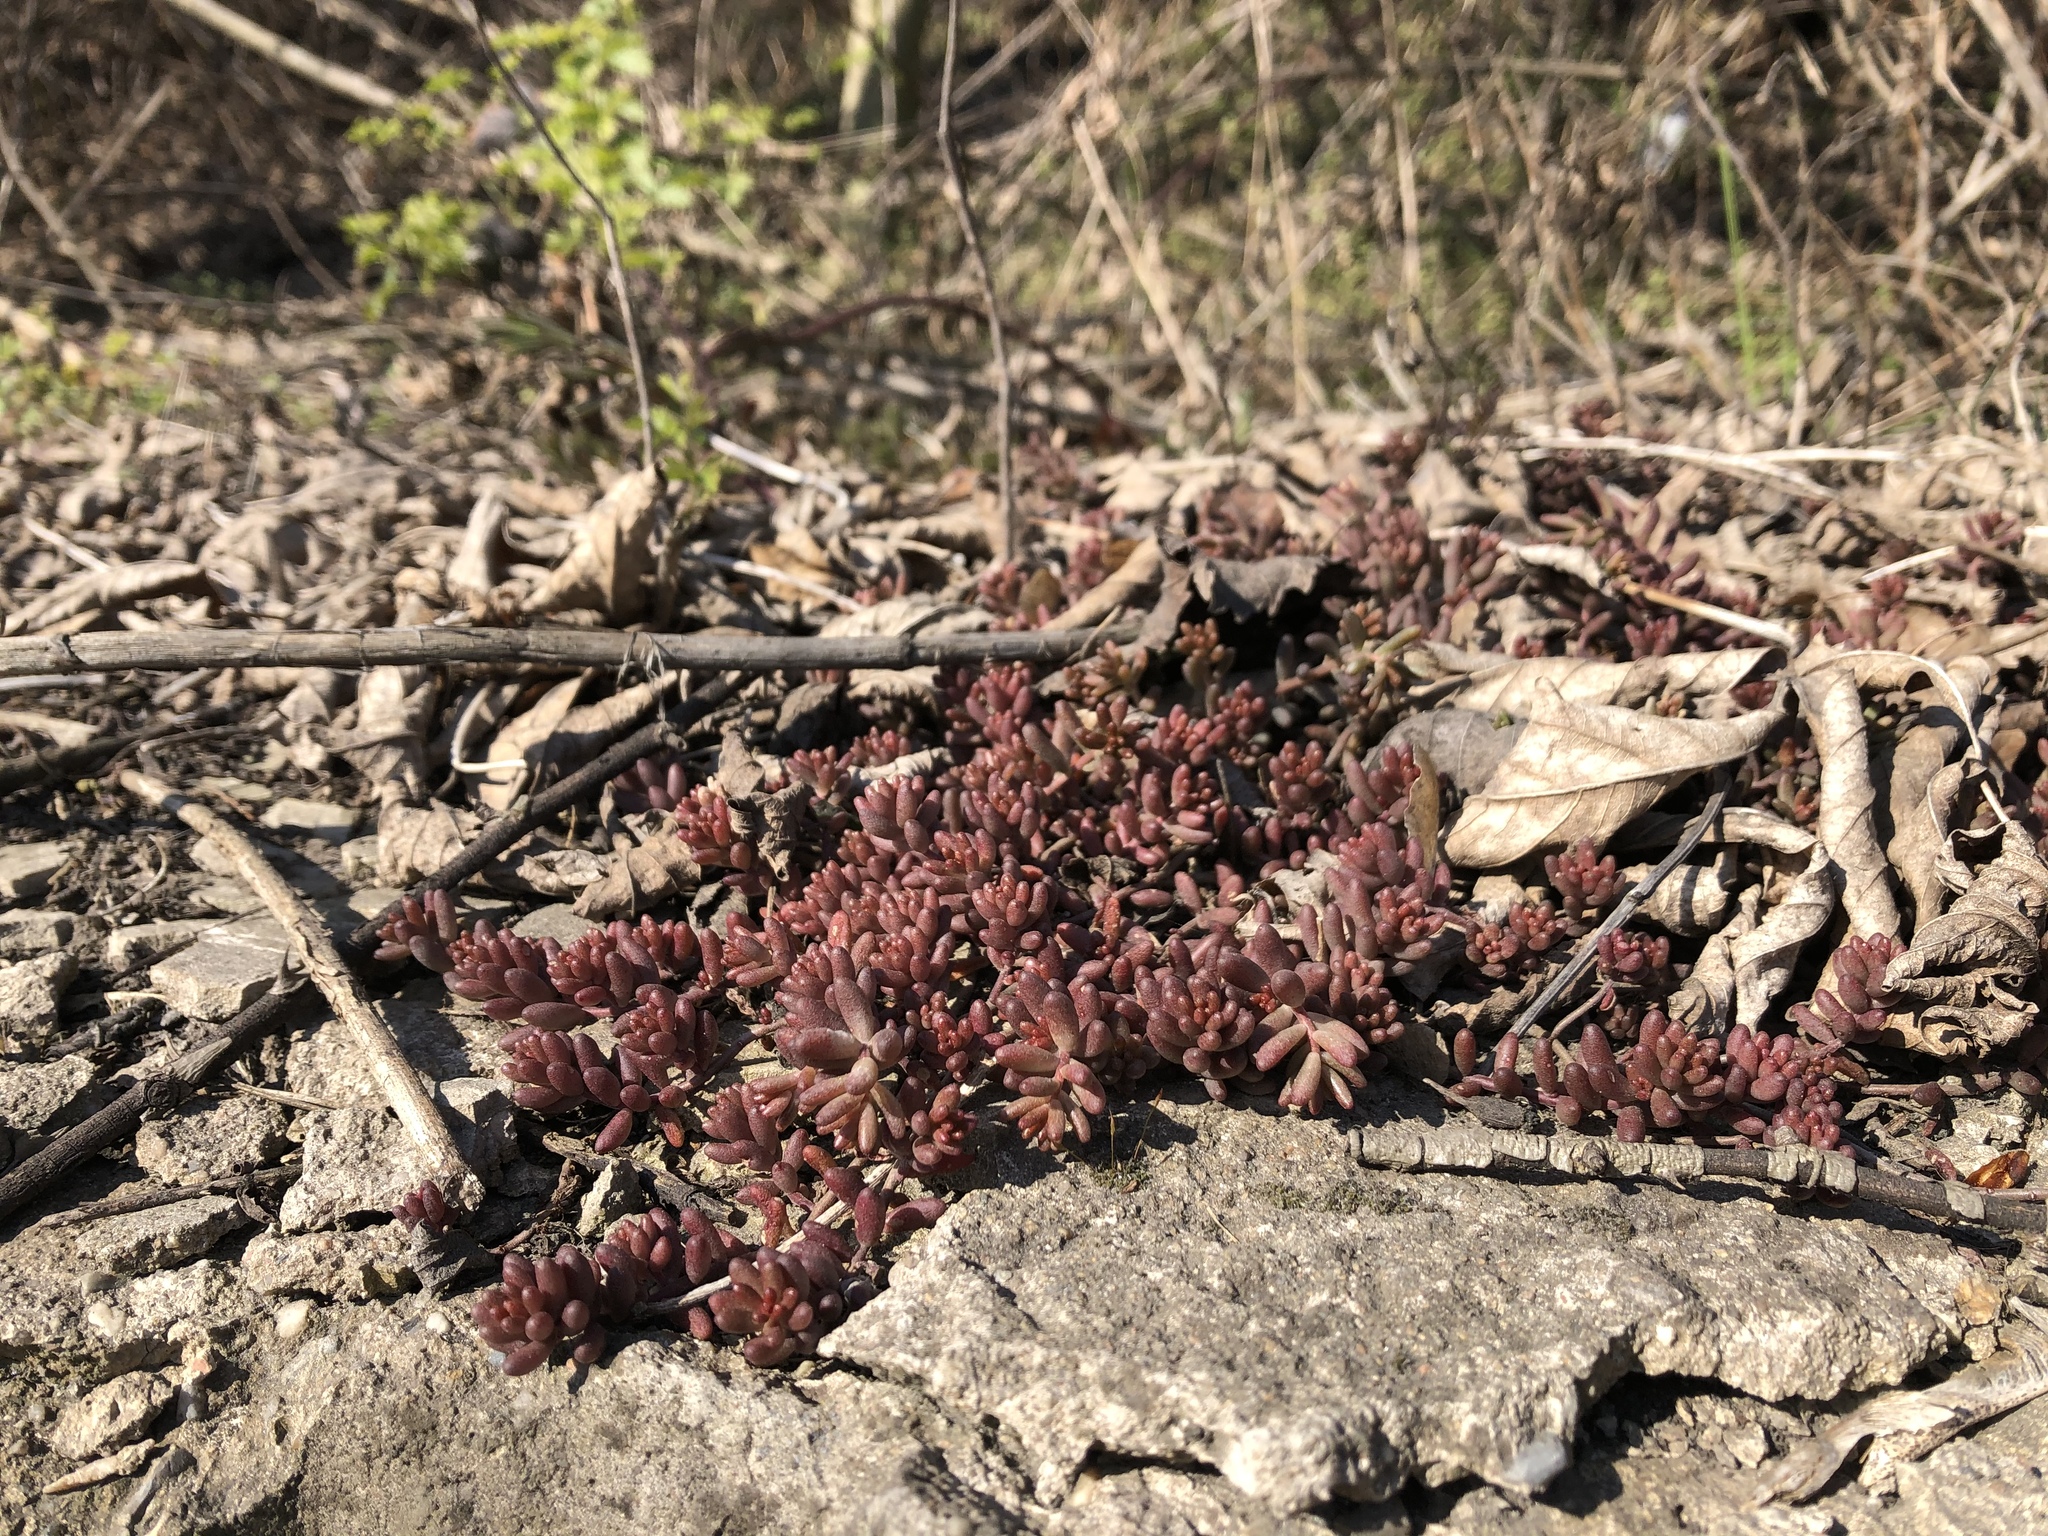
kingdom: Plantae
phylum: Tracheophyta
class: Magnoliopsida
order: Saxifragales
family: Crassulaceae
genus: Sedum
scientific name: Sedum album
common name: White stonecrop
